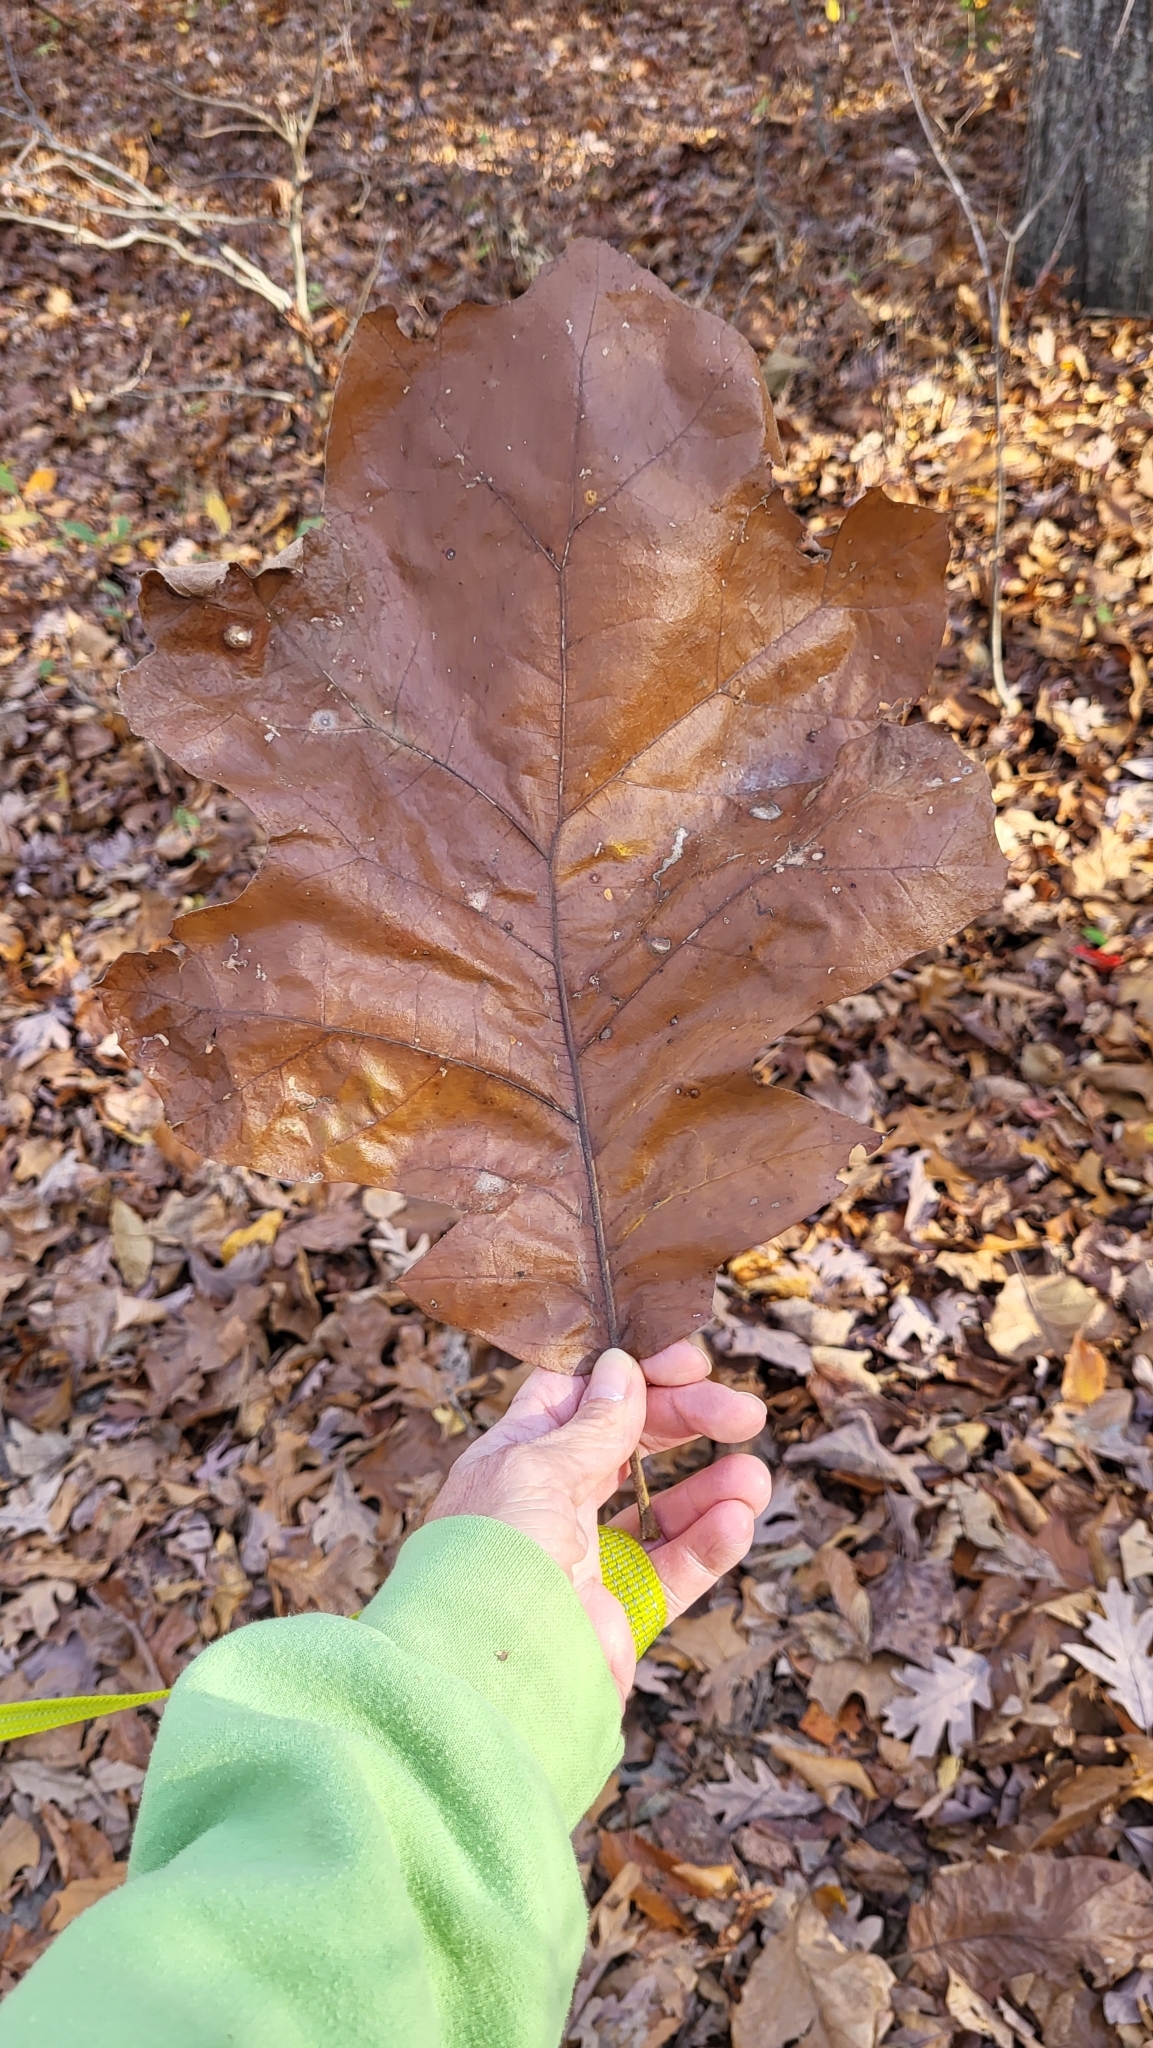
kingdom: Plantae
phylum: Tracheophyta
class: Magnoliopsida
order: Fagales
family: Fagaceae
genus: Quercus
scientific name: Quercus velutina
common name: Black oak
